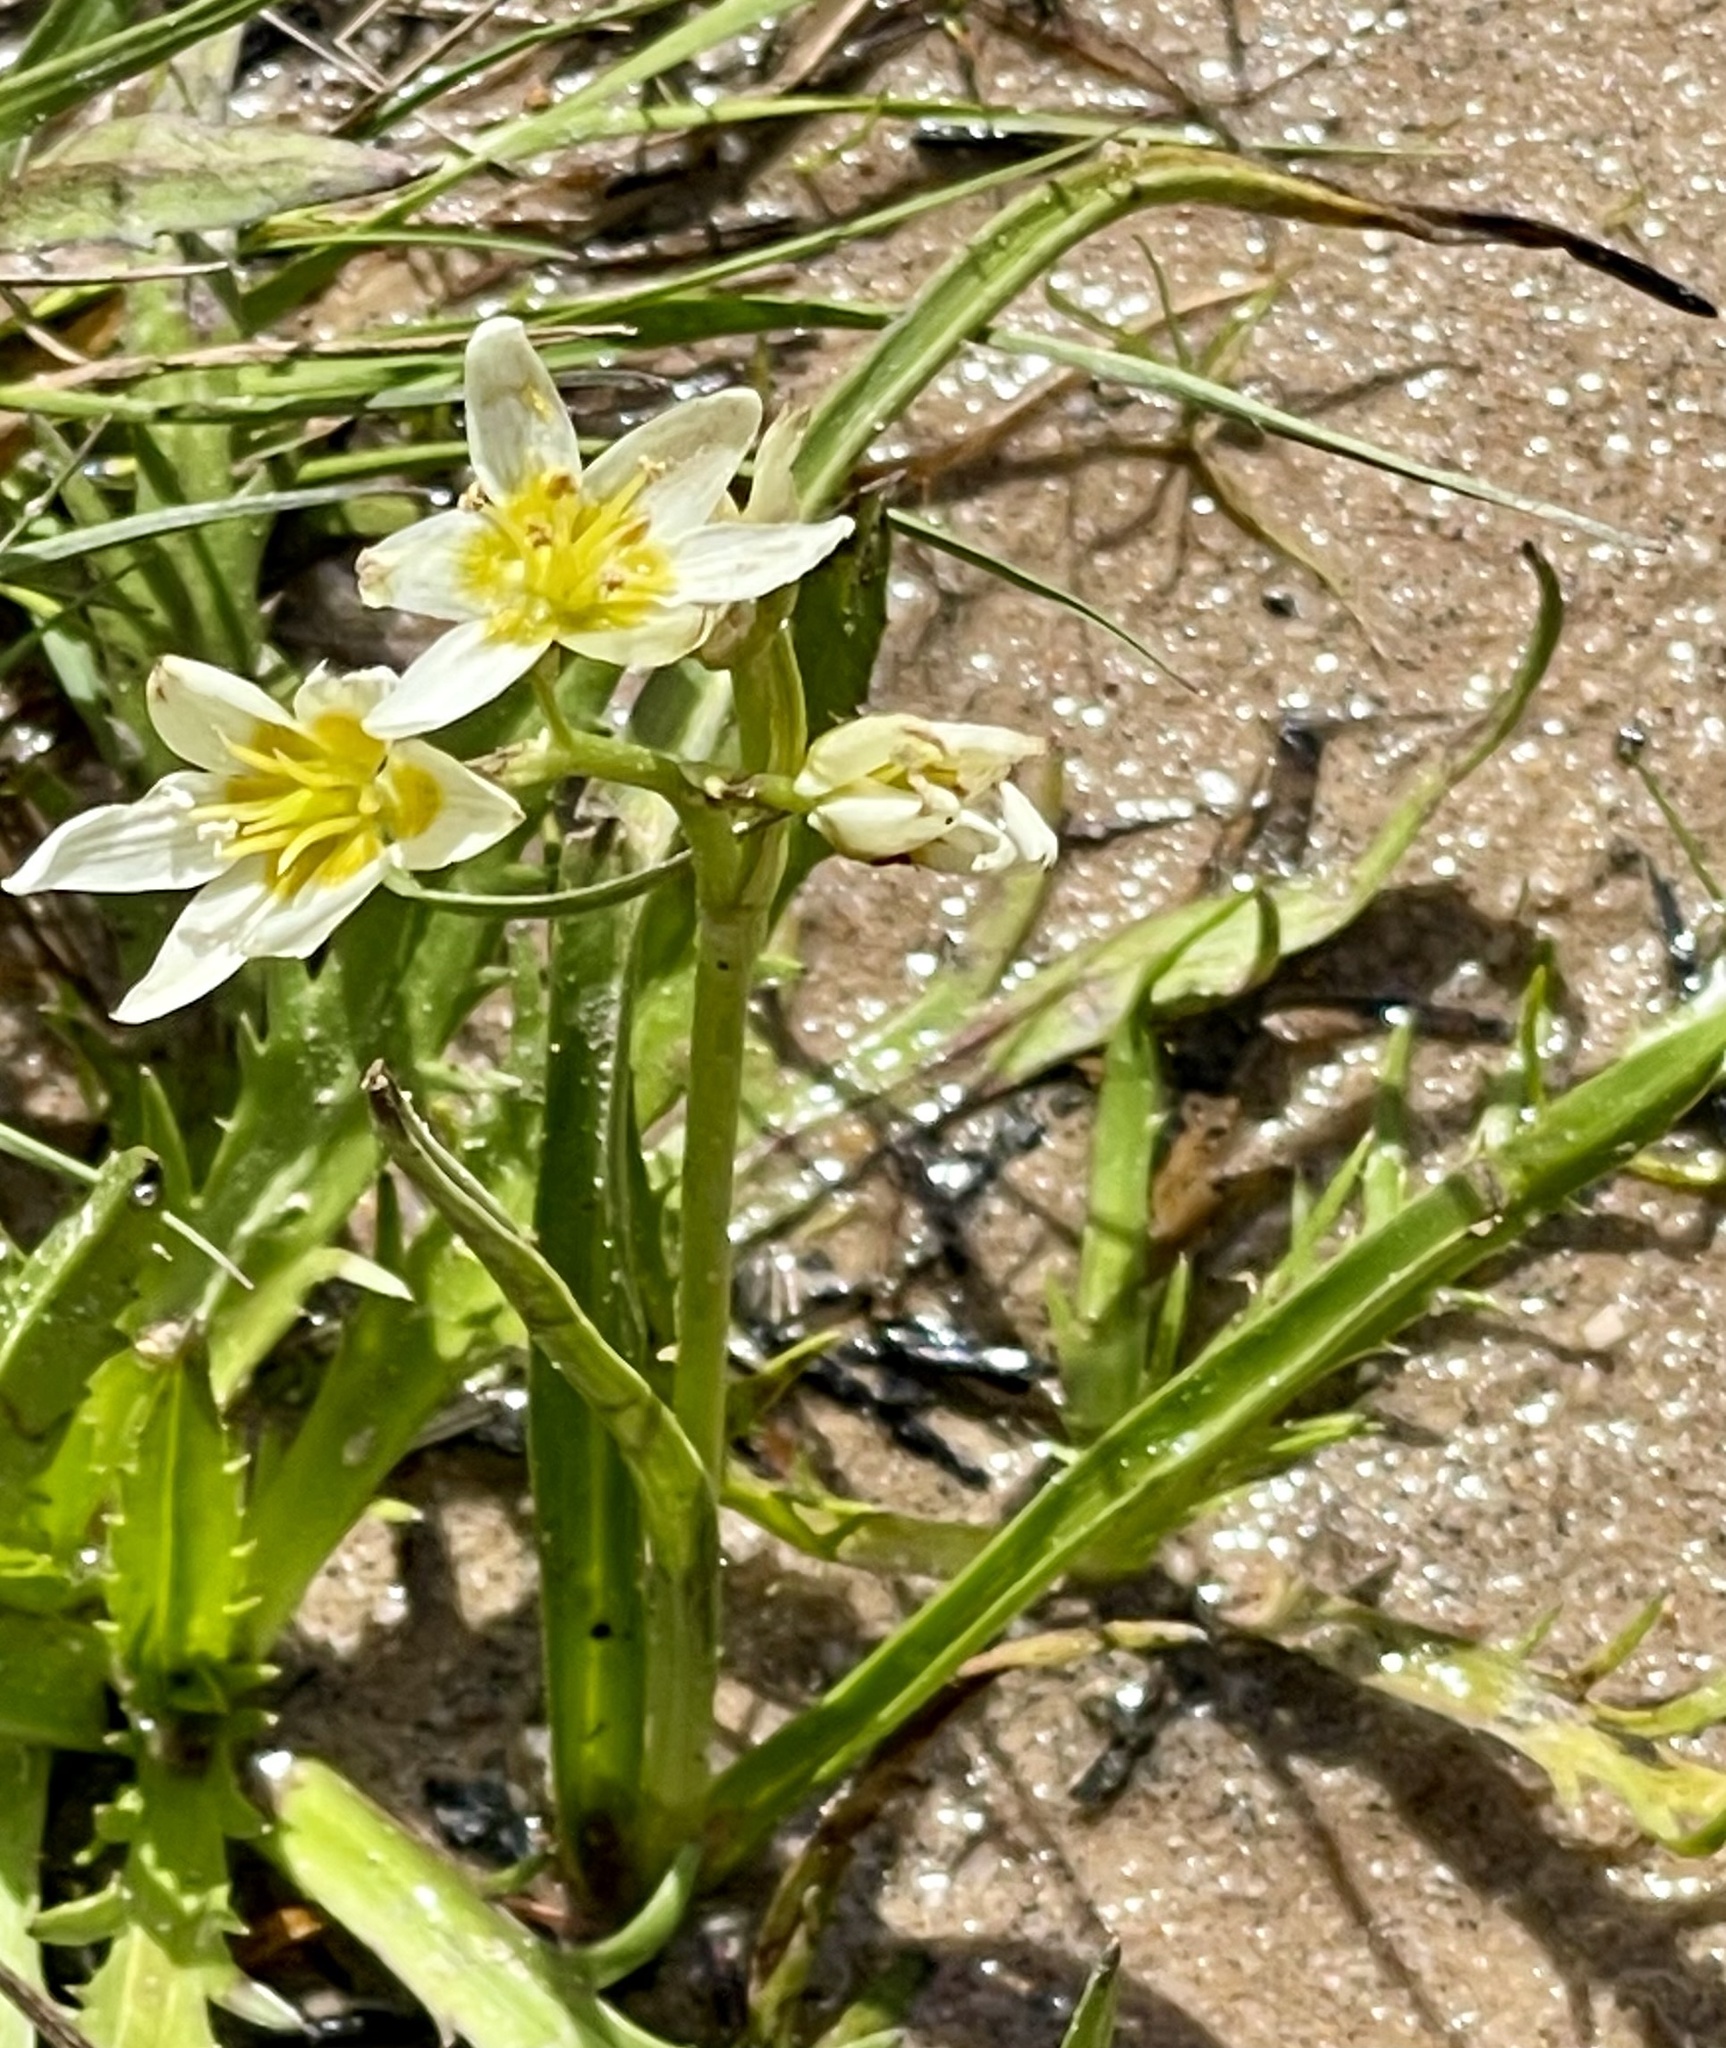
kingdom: Plantae
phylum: Tracheophyta
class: Liliopsida
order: Liliales
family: Melanthiaceae
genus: Toxicoscordion
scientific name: Toxicoscordion fremontii
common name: Fremont's death camas
